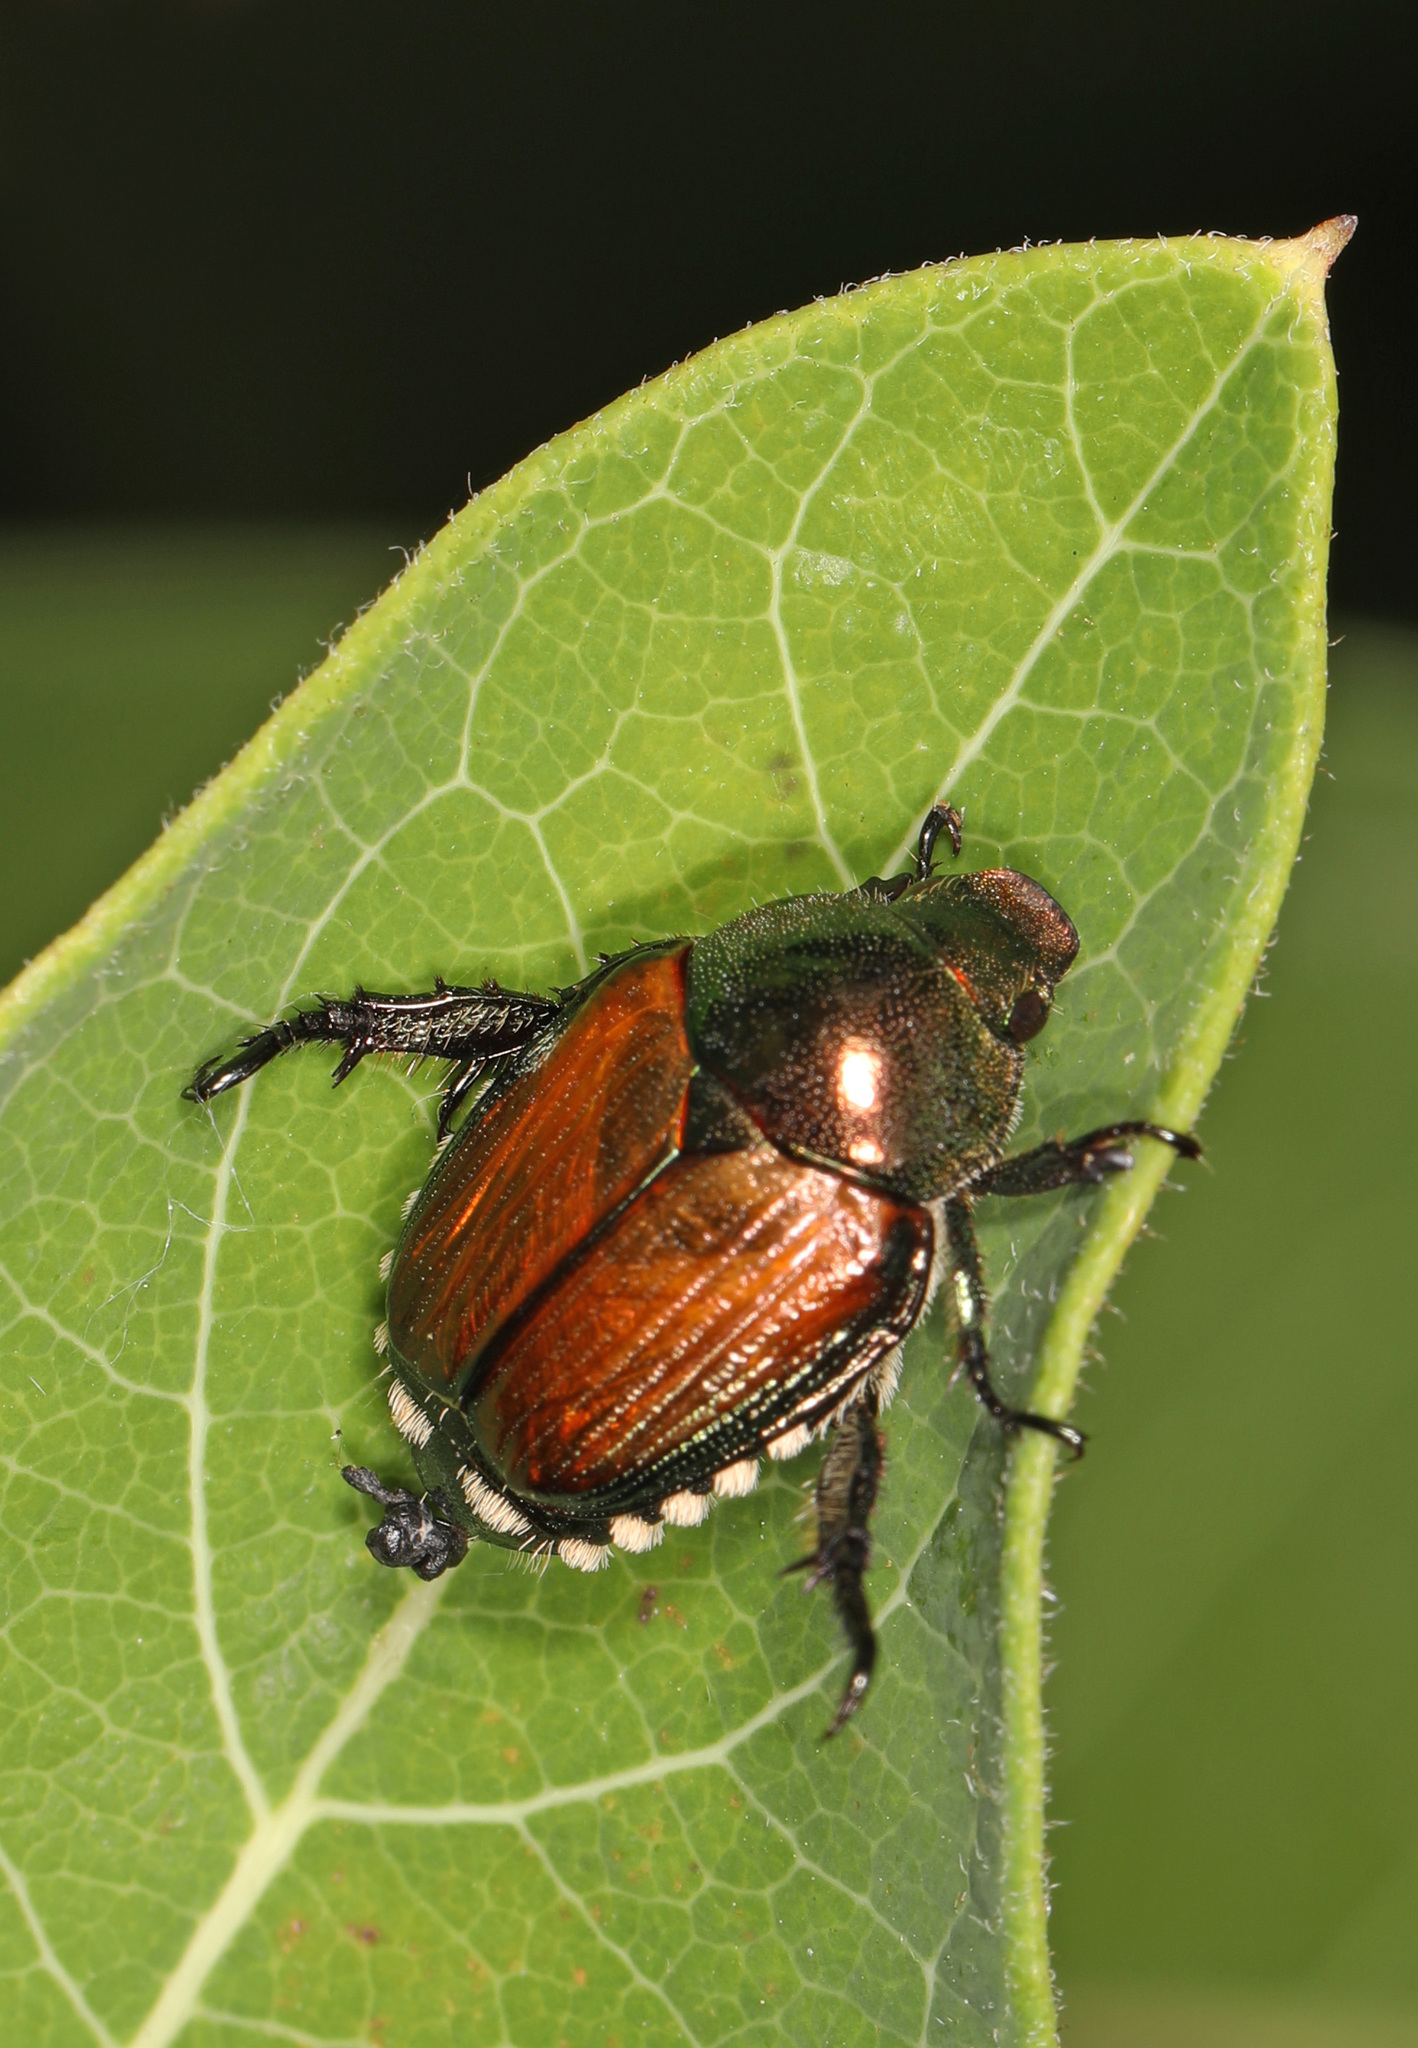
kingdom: Animalia
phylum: Arthropoda
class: Insecta
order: Coleoptera
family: Scarabaeidae
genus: Popillia
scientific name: Popillia japonica
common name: Japanese beetle
